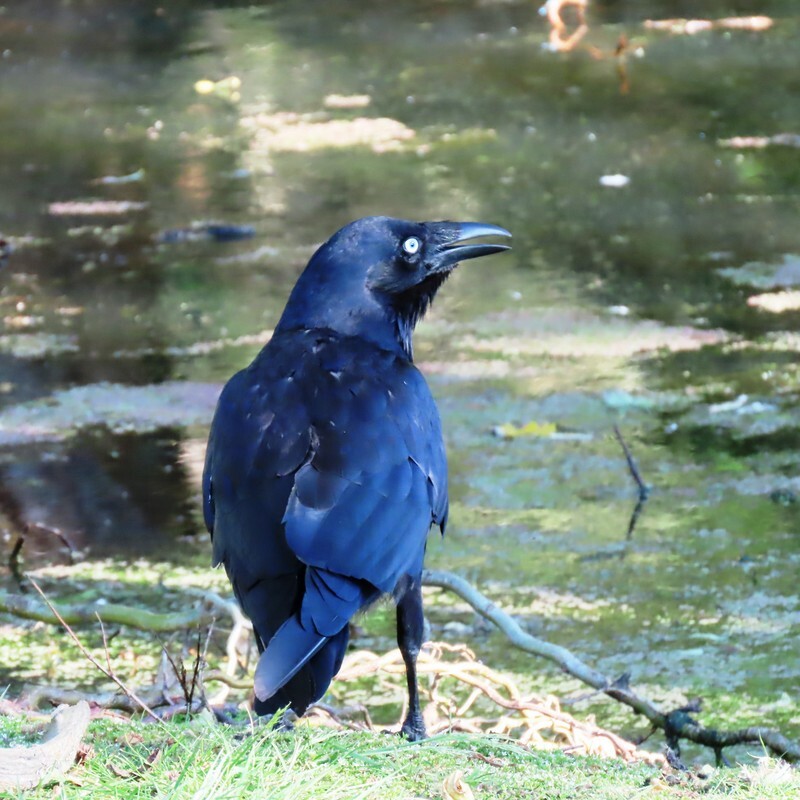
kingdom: Animalia
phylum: Chordata
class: Aves
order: Passeriformes
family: Corvidae
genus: Corvus
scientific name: Corvus mellori
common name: Little raven
